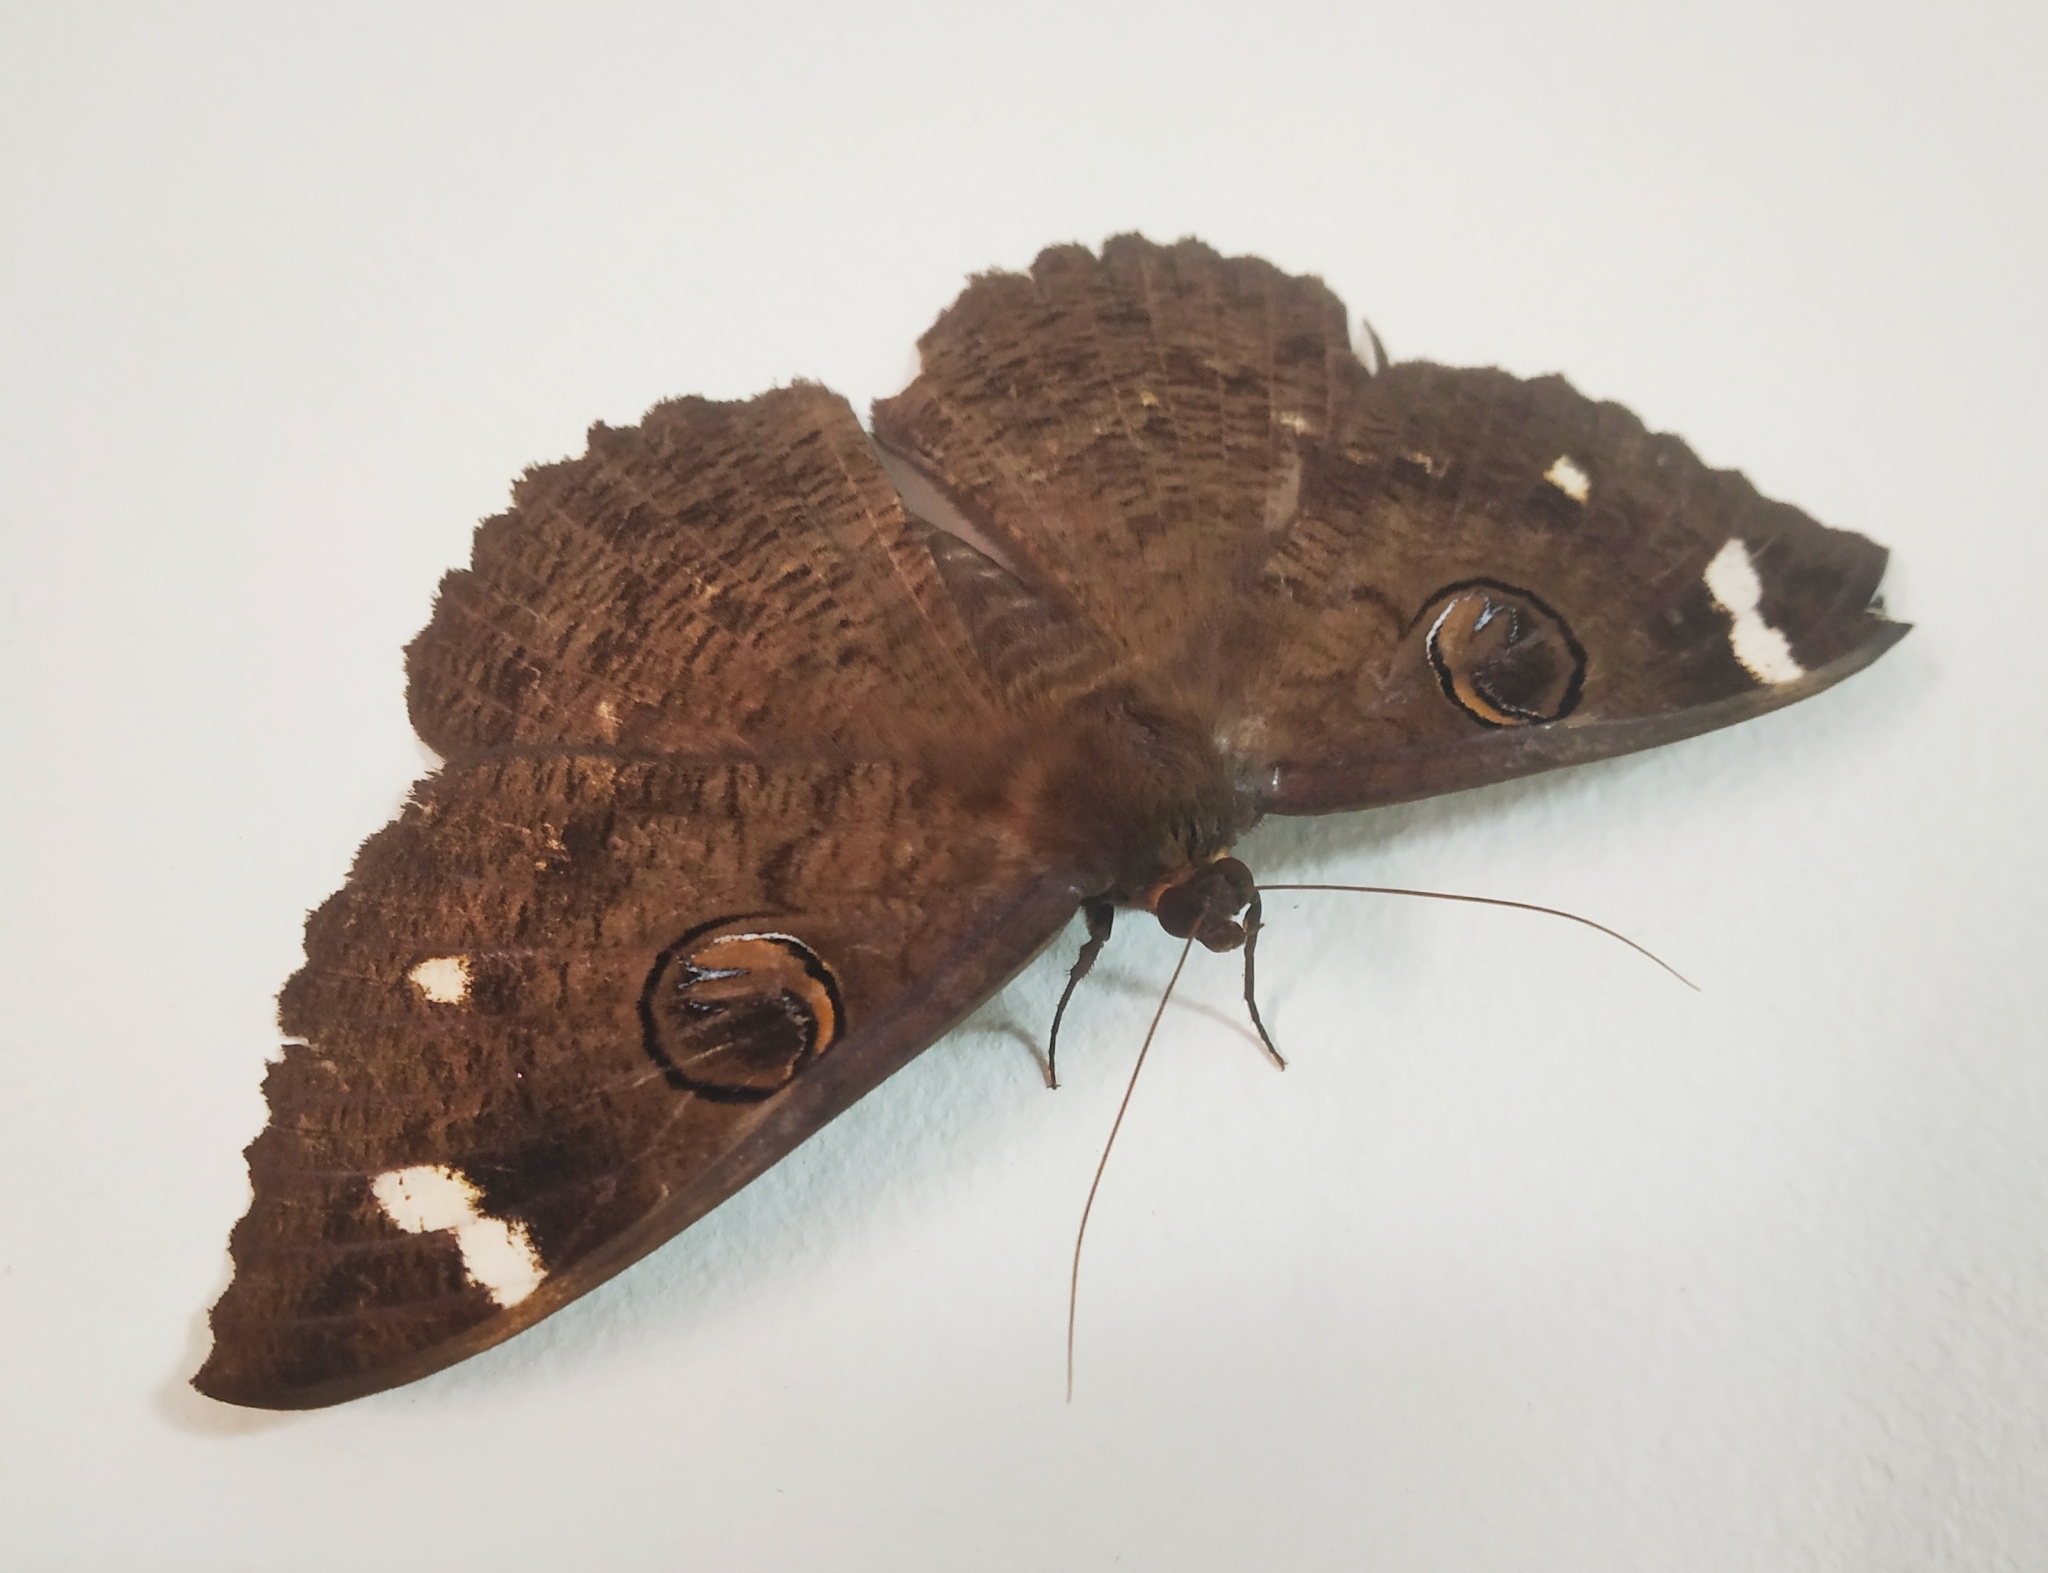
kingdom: Animalia
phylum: Arthropoda
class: Insecta
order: Lepidoptera
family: Erebidae
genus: Erebus
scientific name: Erebus hieroglyphica
